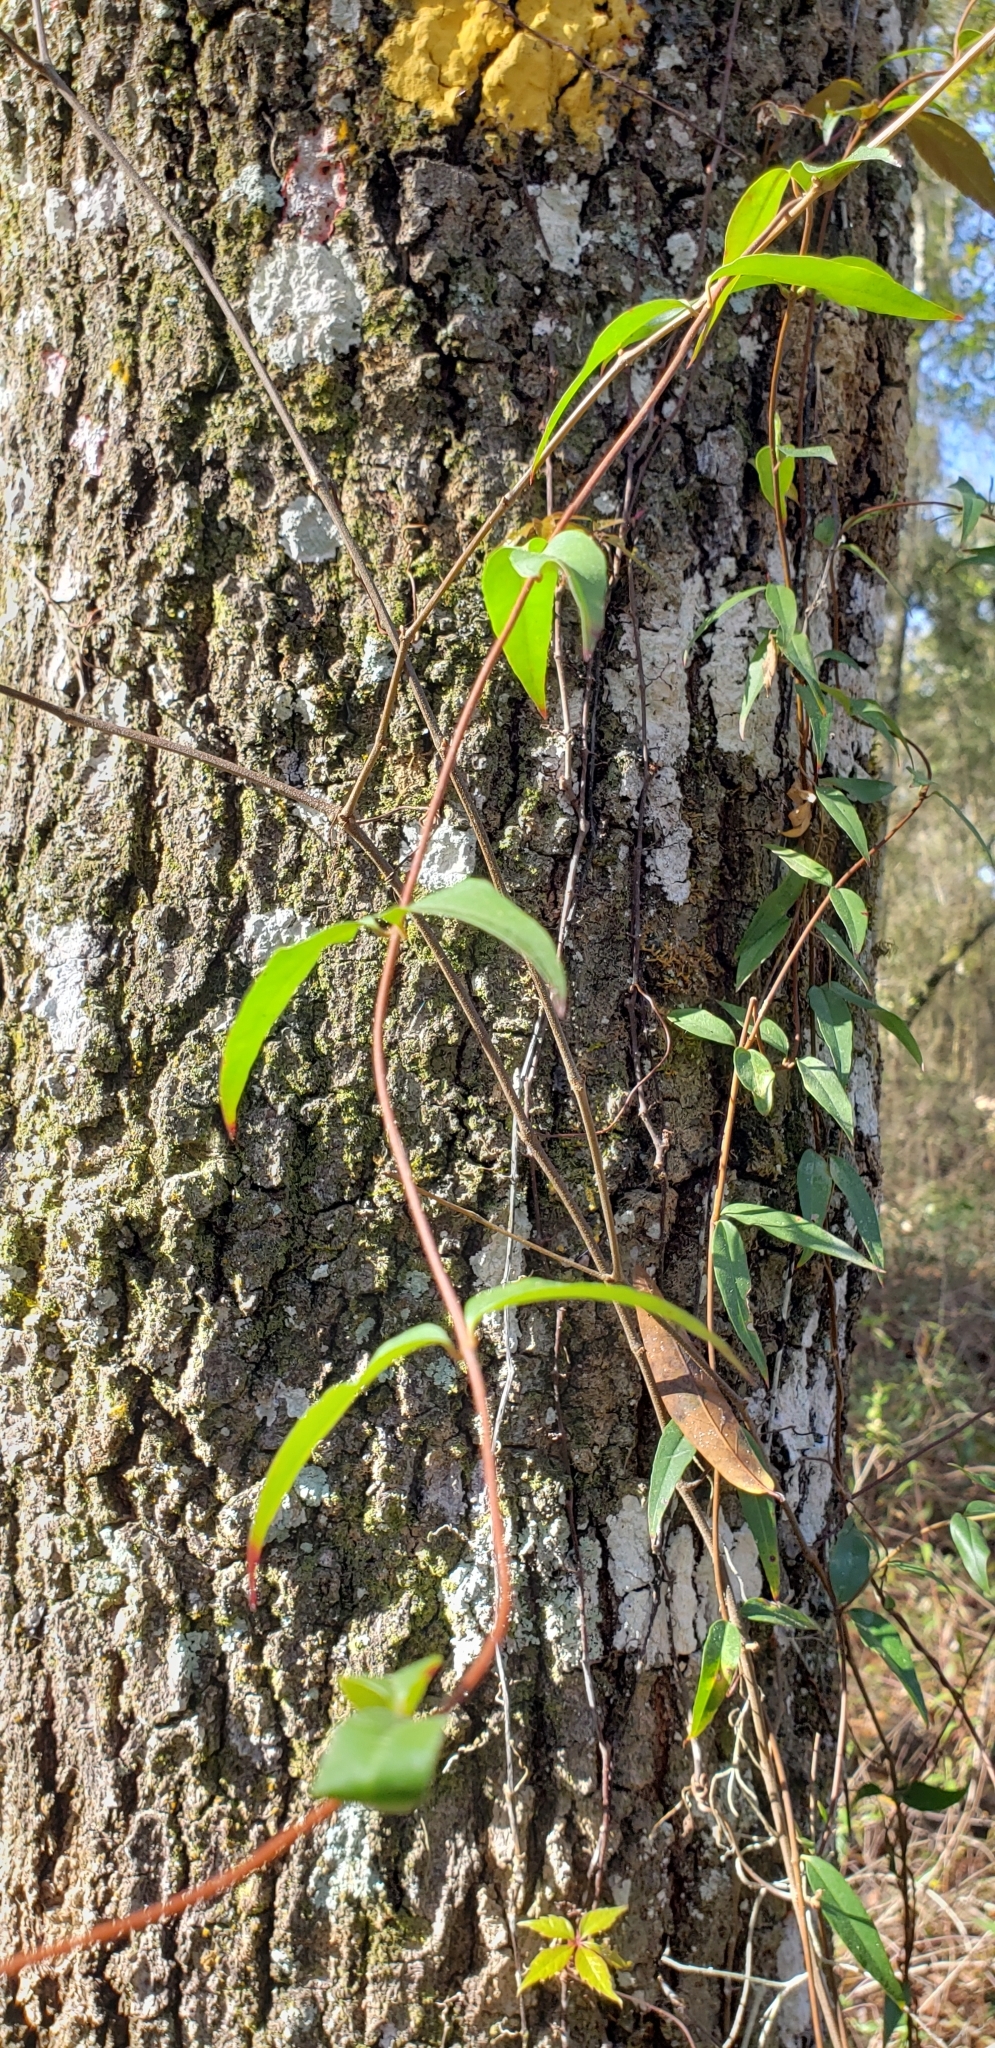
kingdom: Plantae
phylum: Tracheophyta
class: Magnoliopsida
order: Gentianales
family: Gelsemiaceae
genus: Gelsemium
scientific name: Gelsemium sempervirens
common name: Carolina-jasmine
